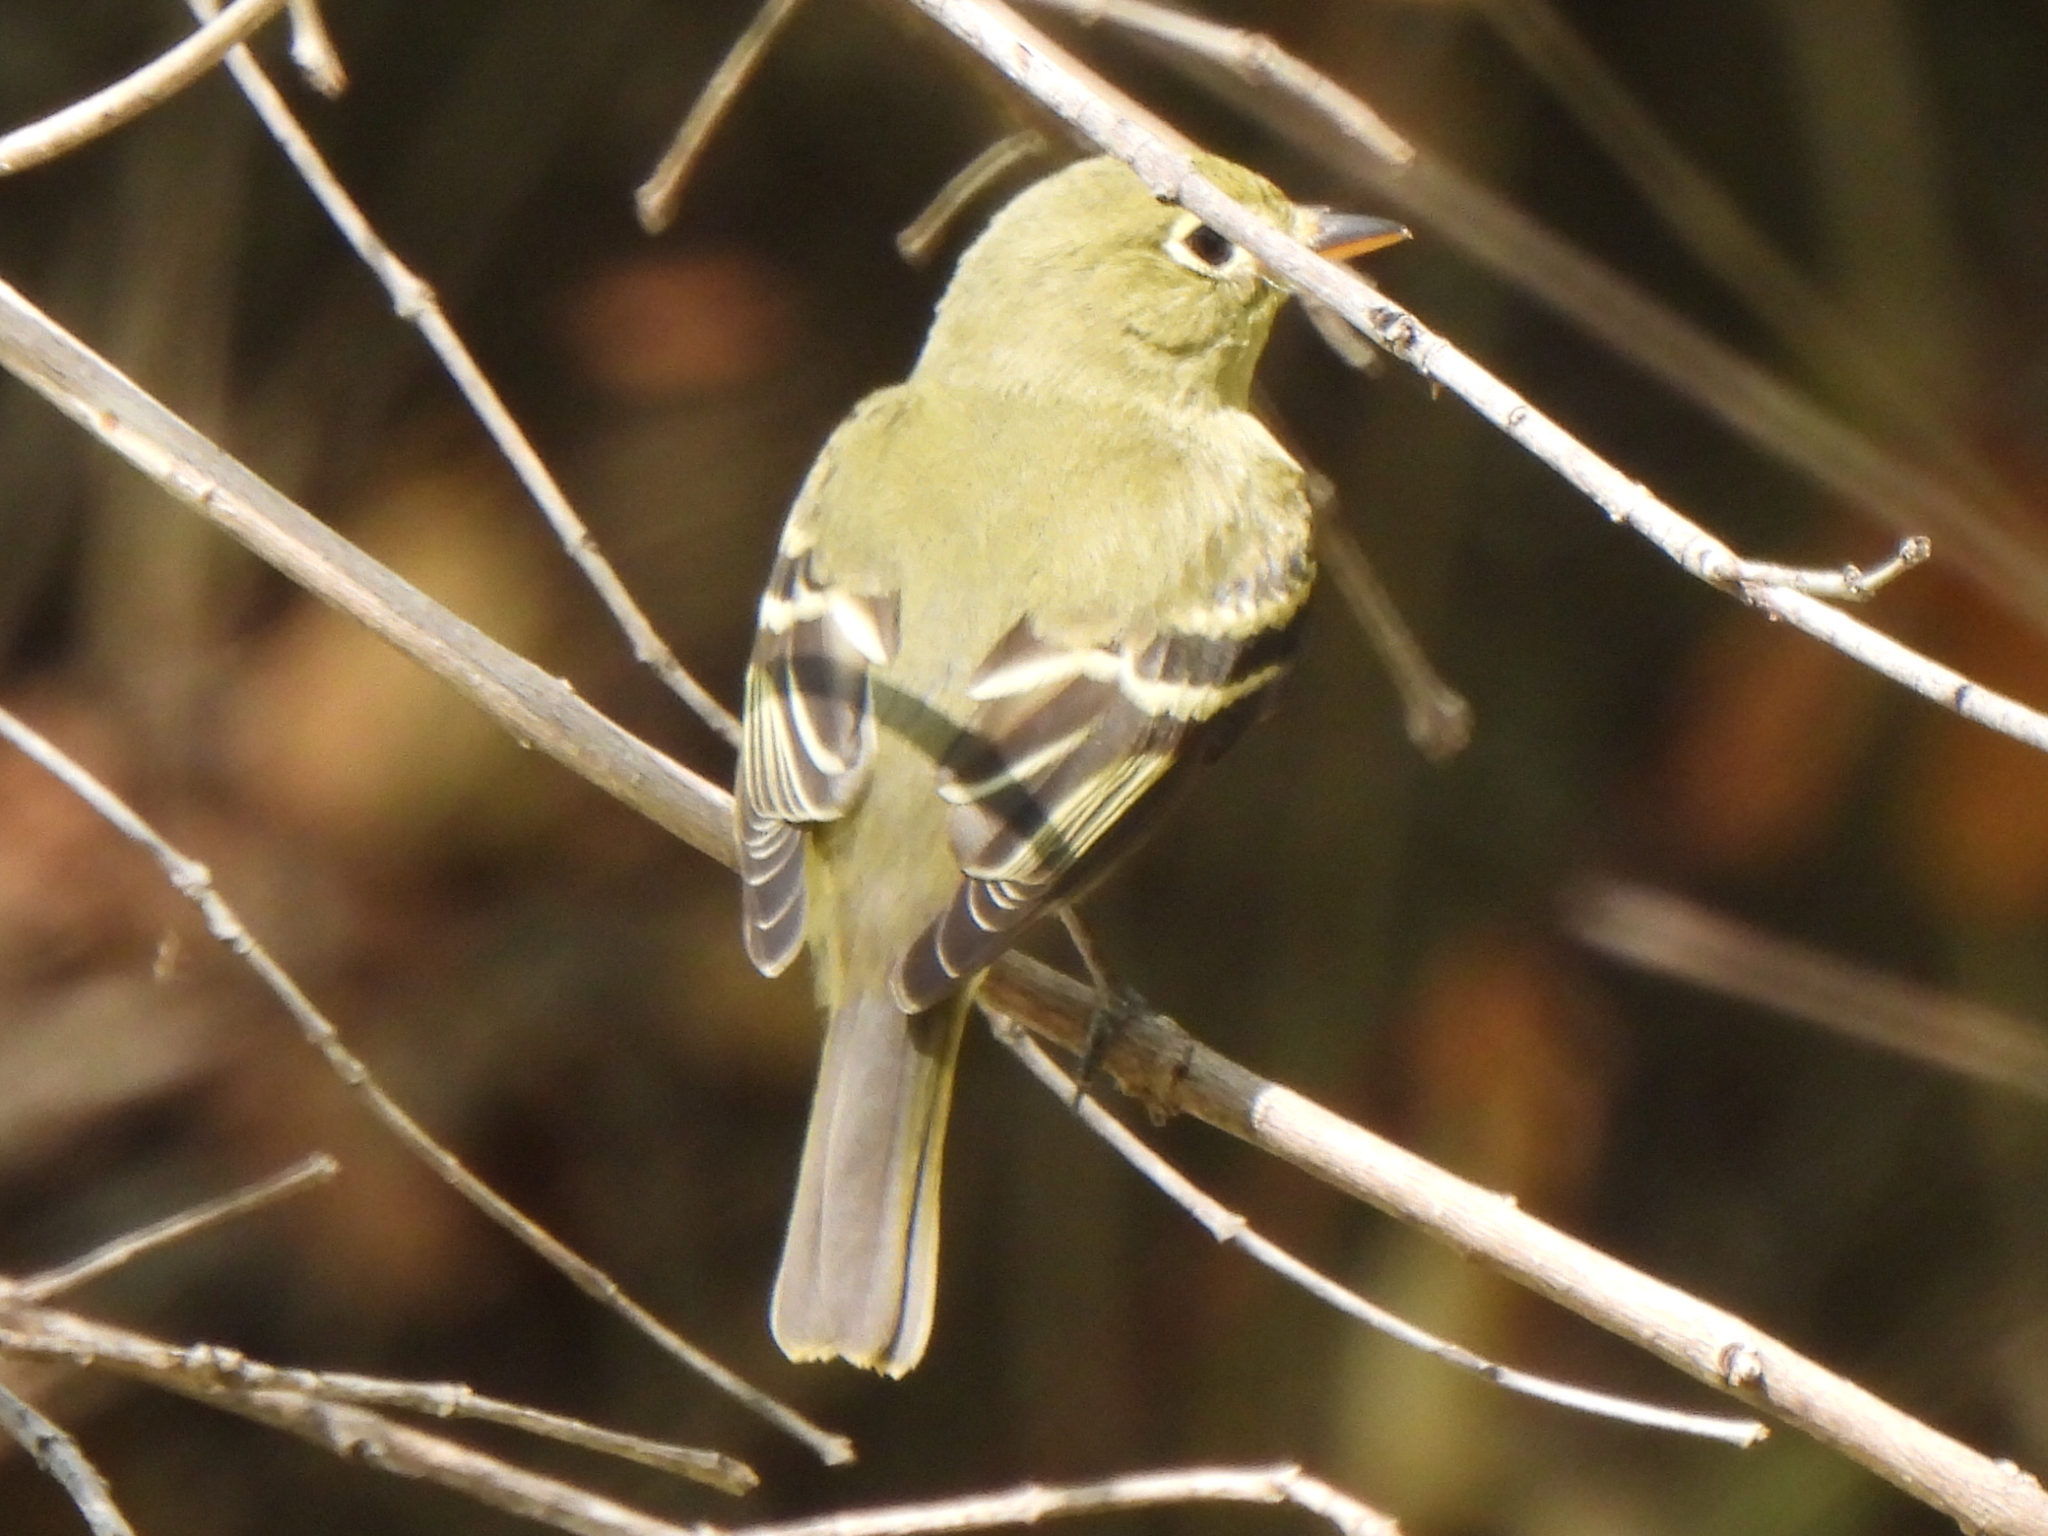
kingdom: Animalia
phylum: Chordata
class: Aves
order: Passeriformes
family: Tyrannidae
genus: Empidonax
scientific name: Empidonax flaviventris
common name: Yellow-bellied flycatcher
